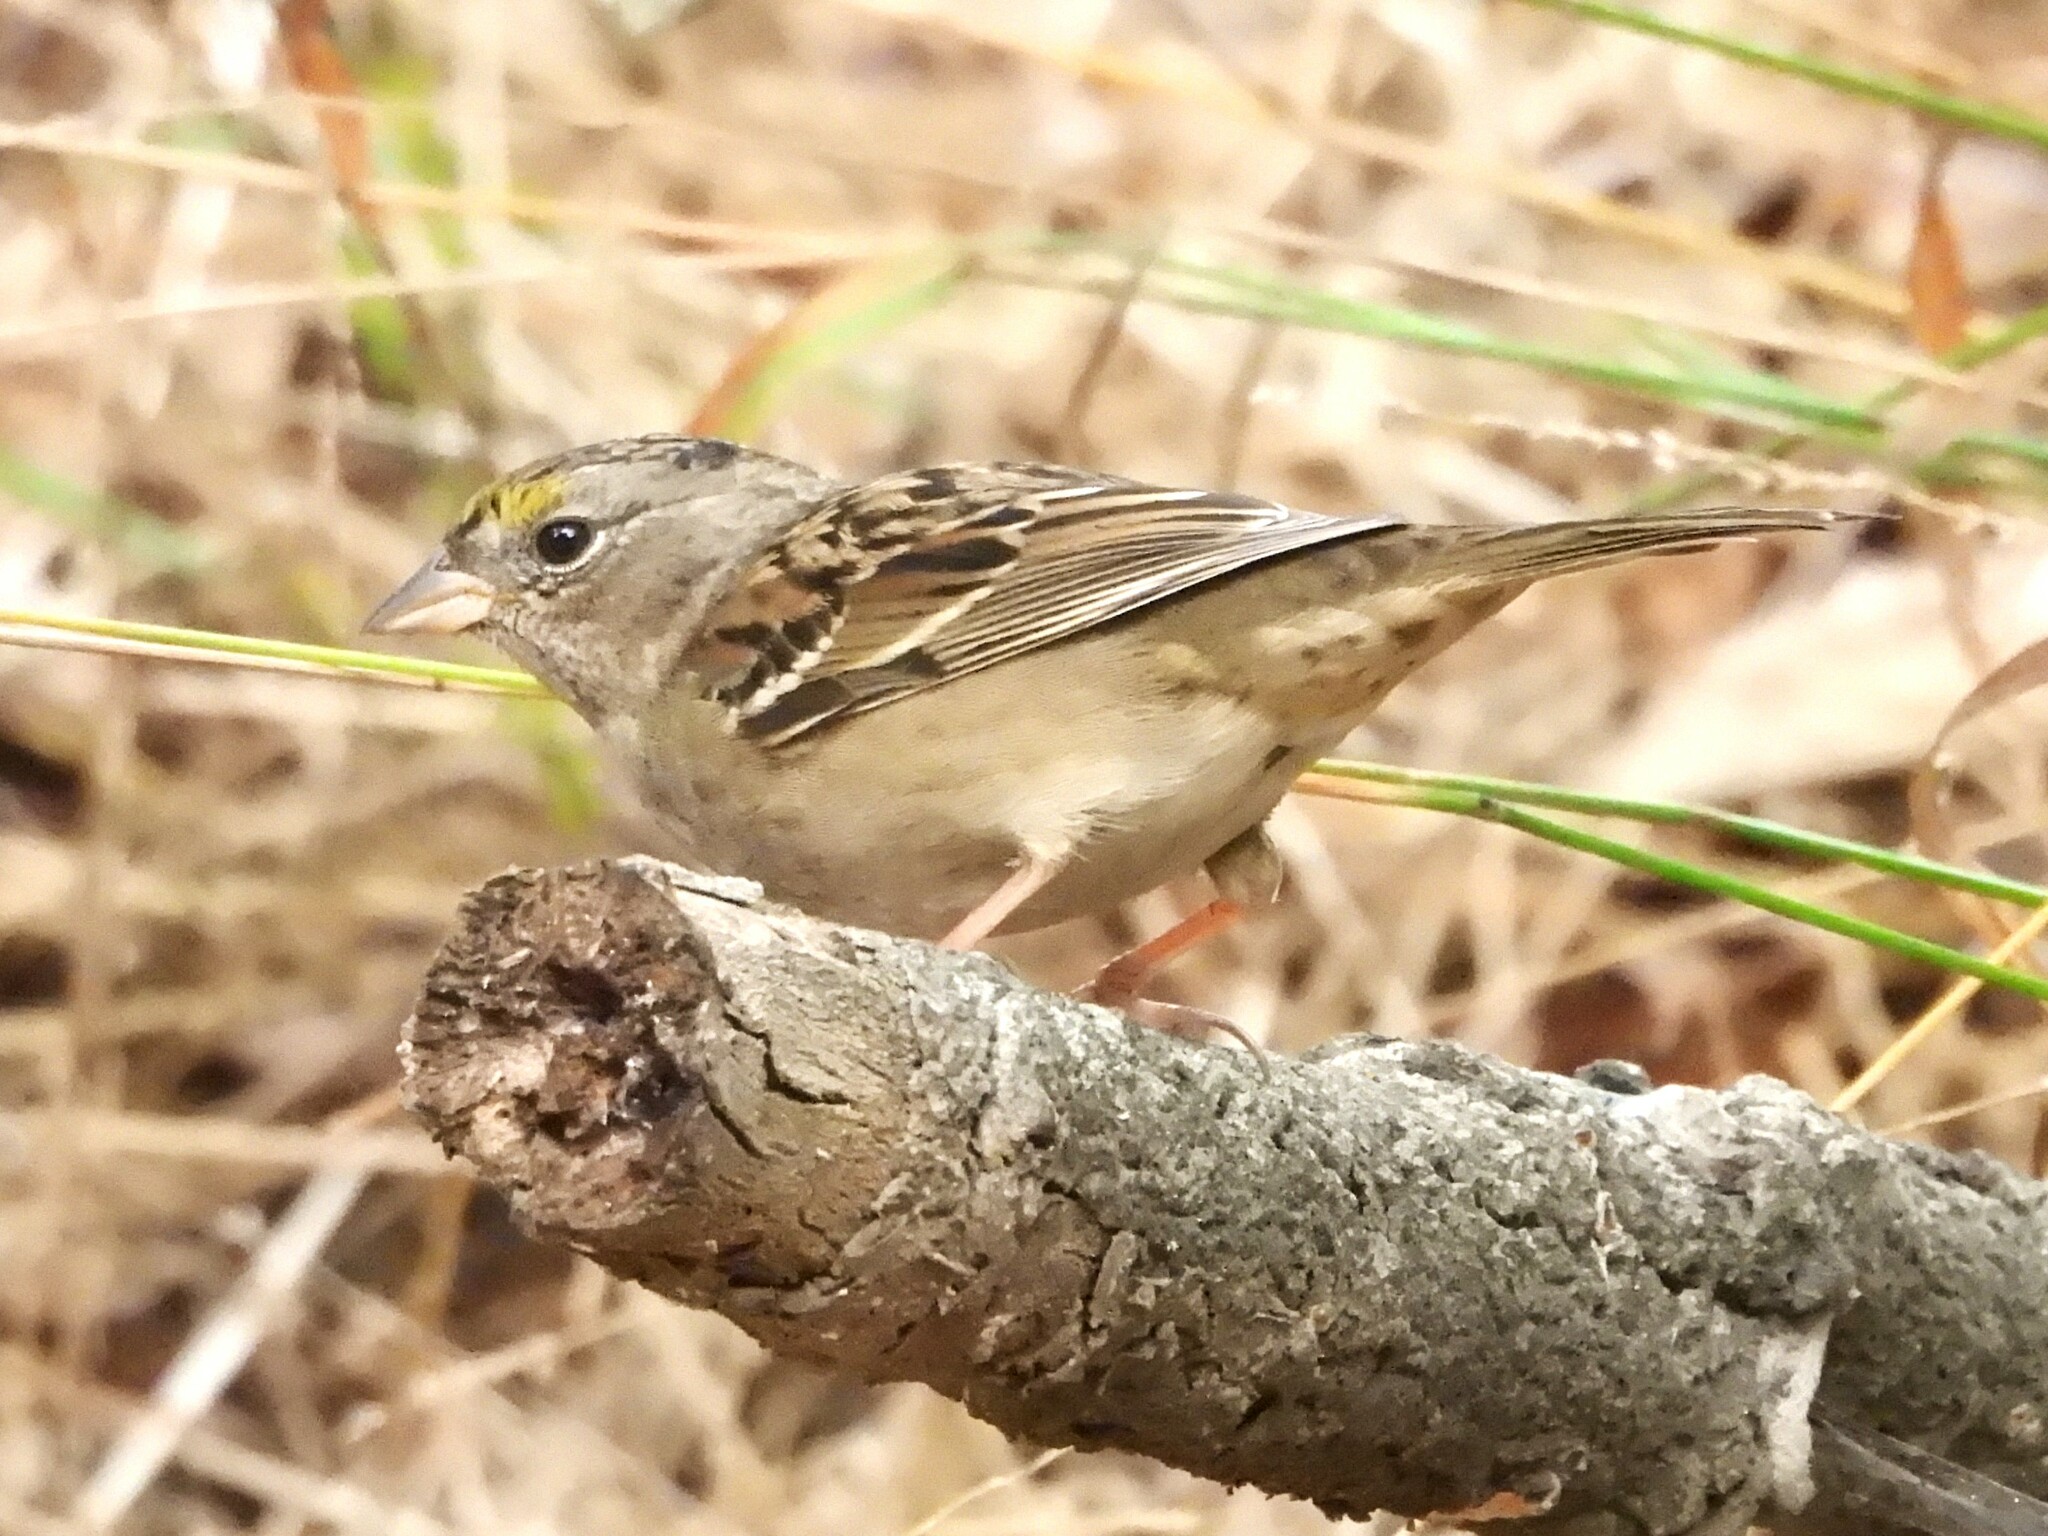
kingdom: Animalia
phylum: Chordata
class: Aves
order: Passeriformes
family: Passerellidae
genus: Zonotrichia
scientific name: Zonotrichia atricapilla
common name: Golden-crowned sparrow
